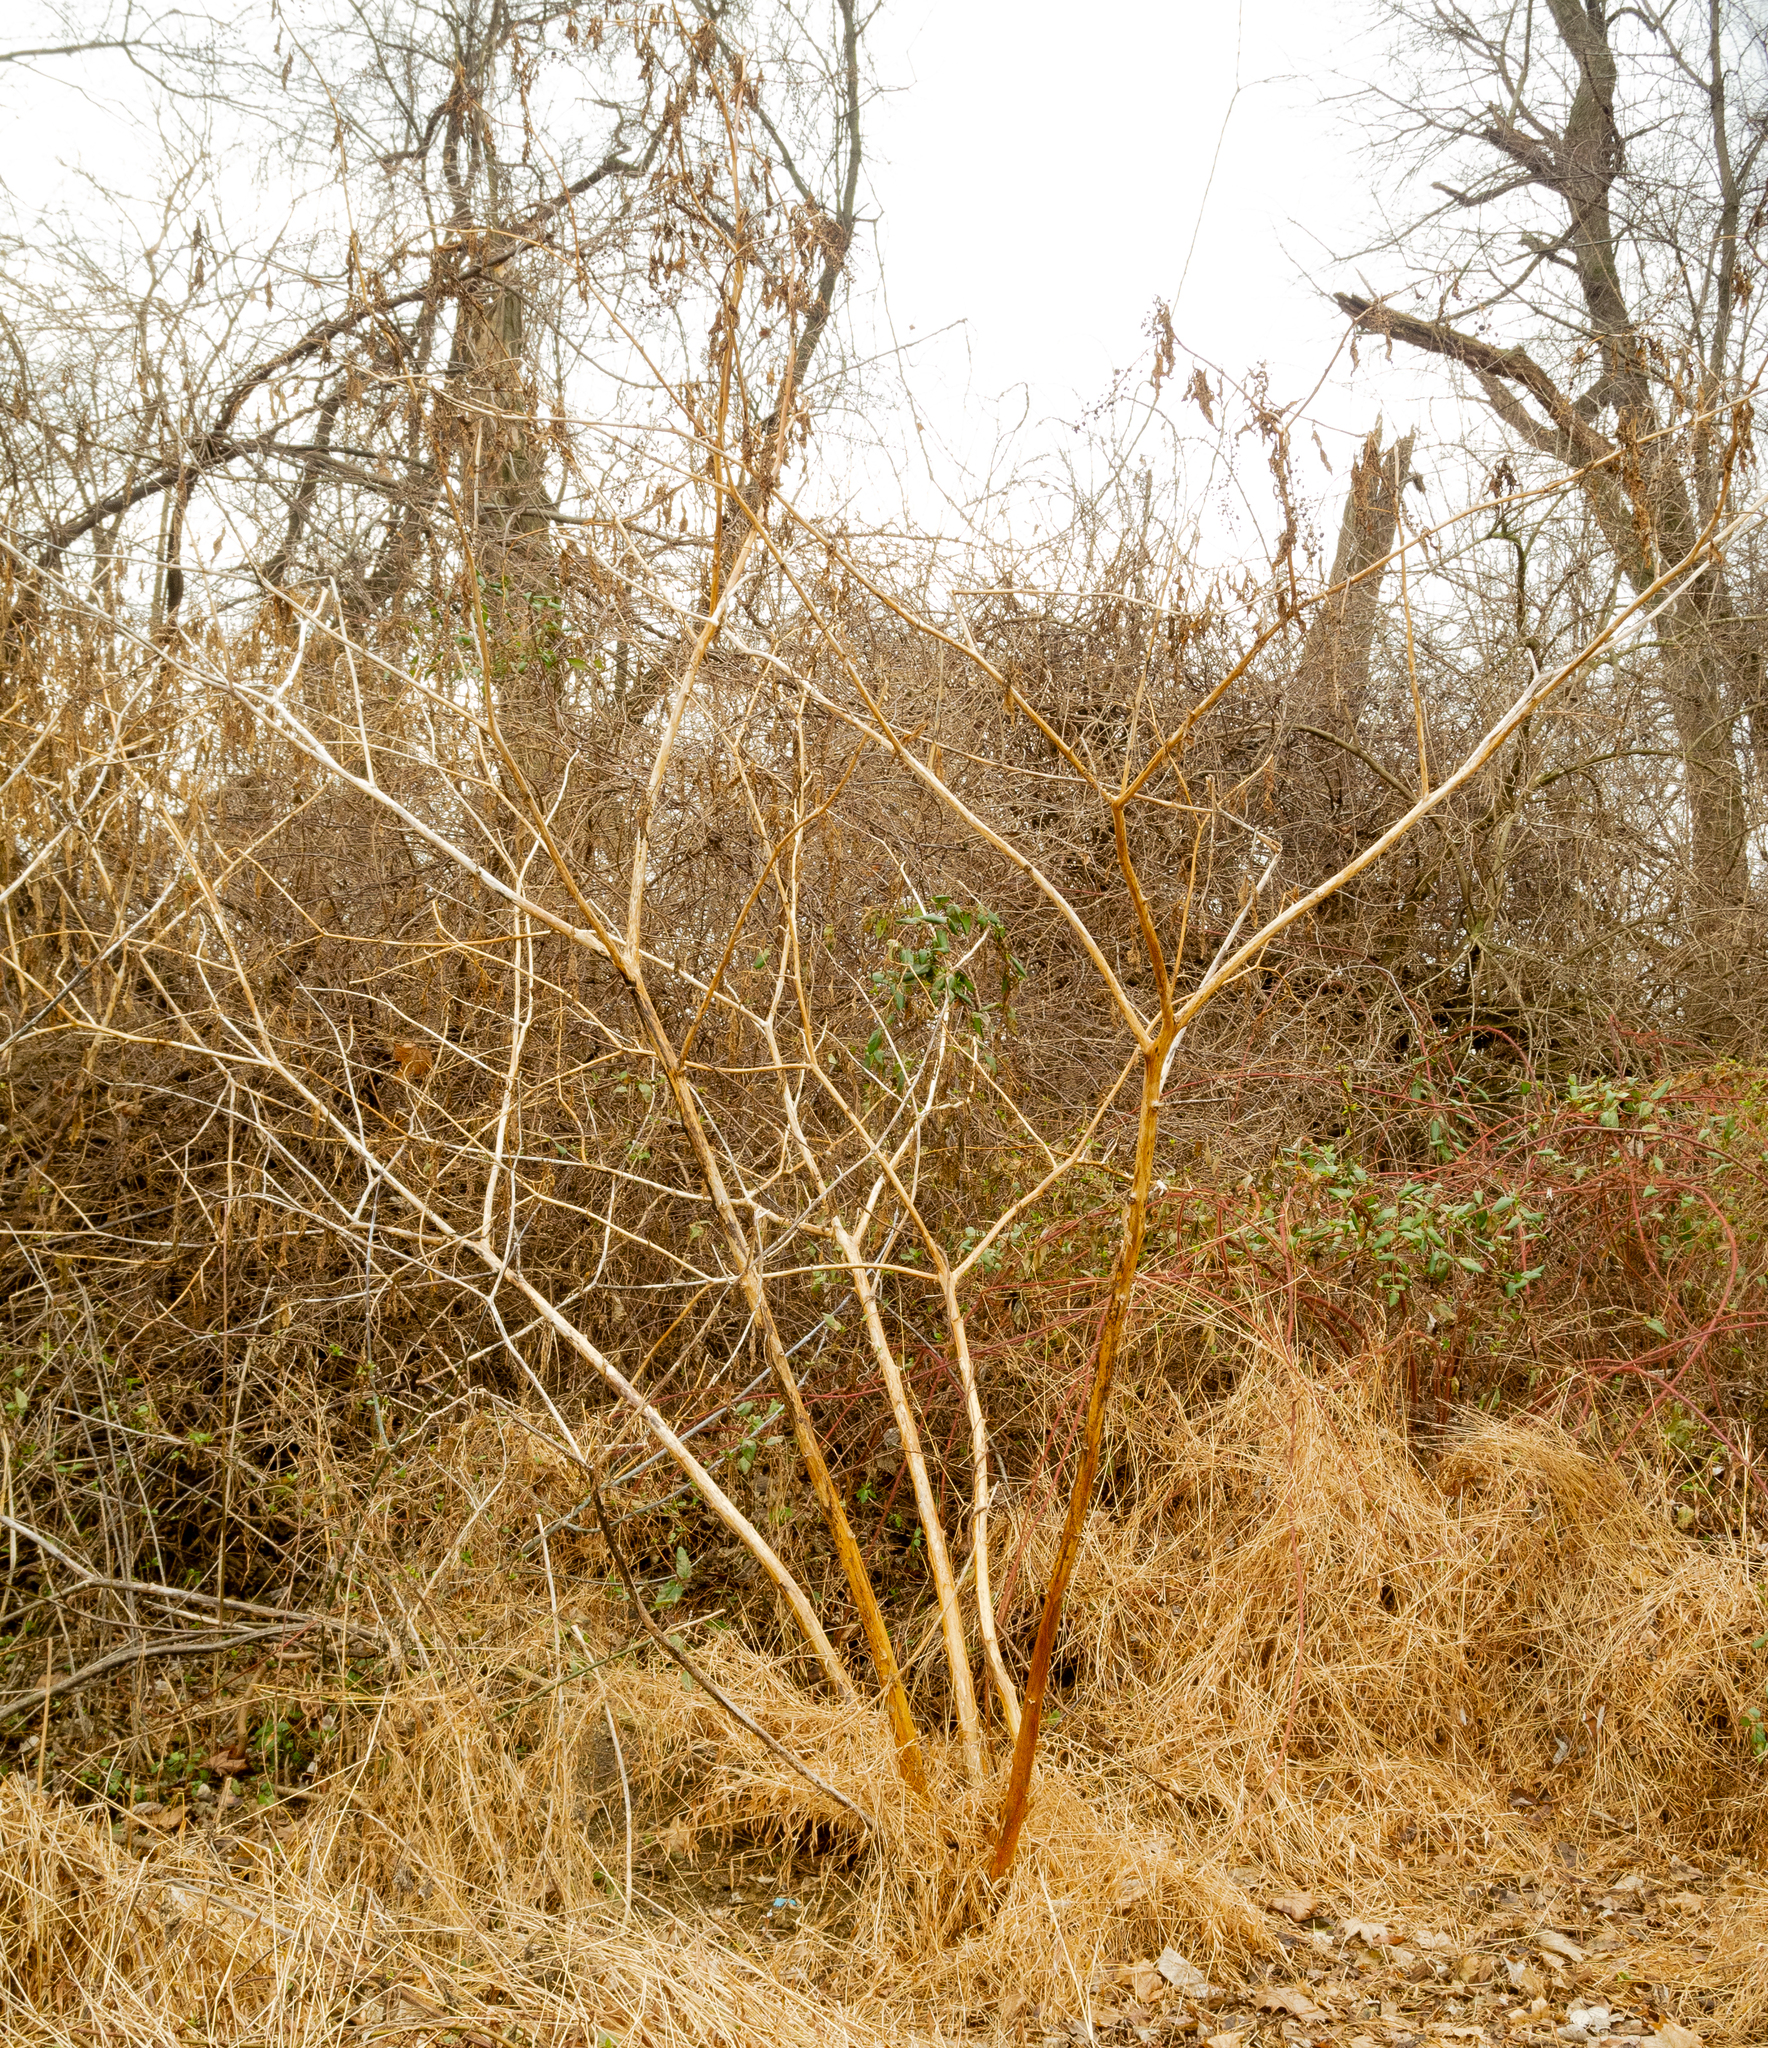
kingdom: Plantae
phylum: Tracheophyta
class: Magnoliopsida
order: Caryophyllales
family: Phytolaccaceae
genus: Phytolacca
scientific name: Phytolacca americana
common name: American pokeweed
